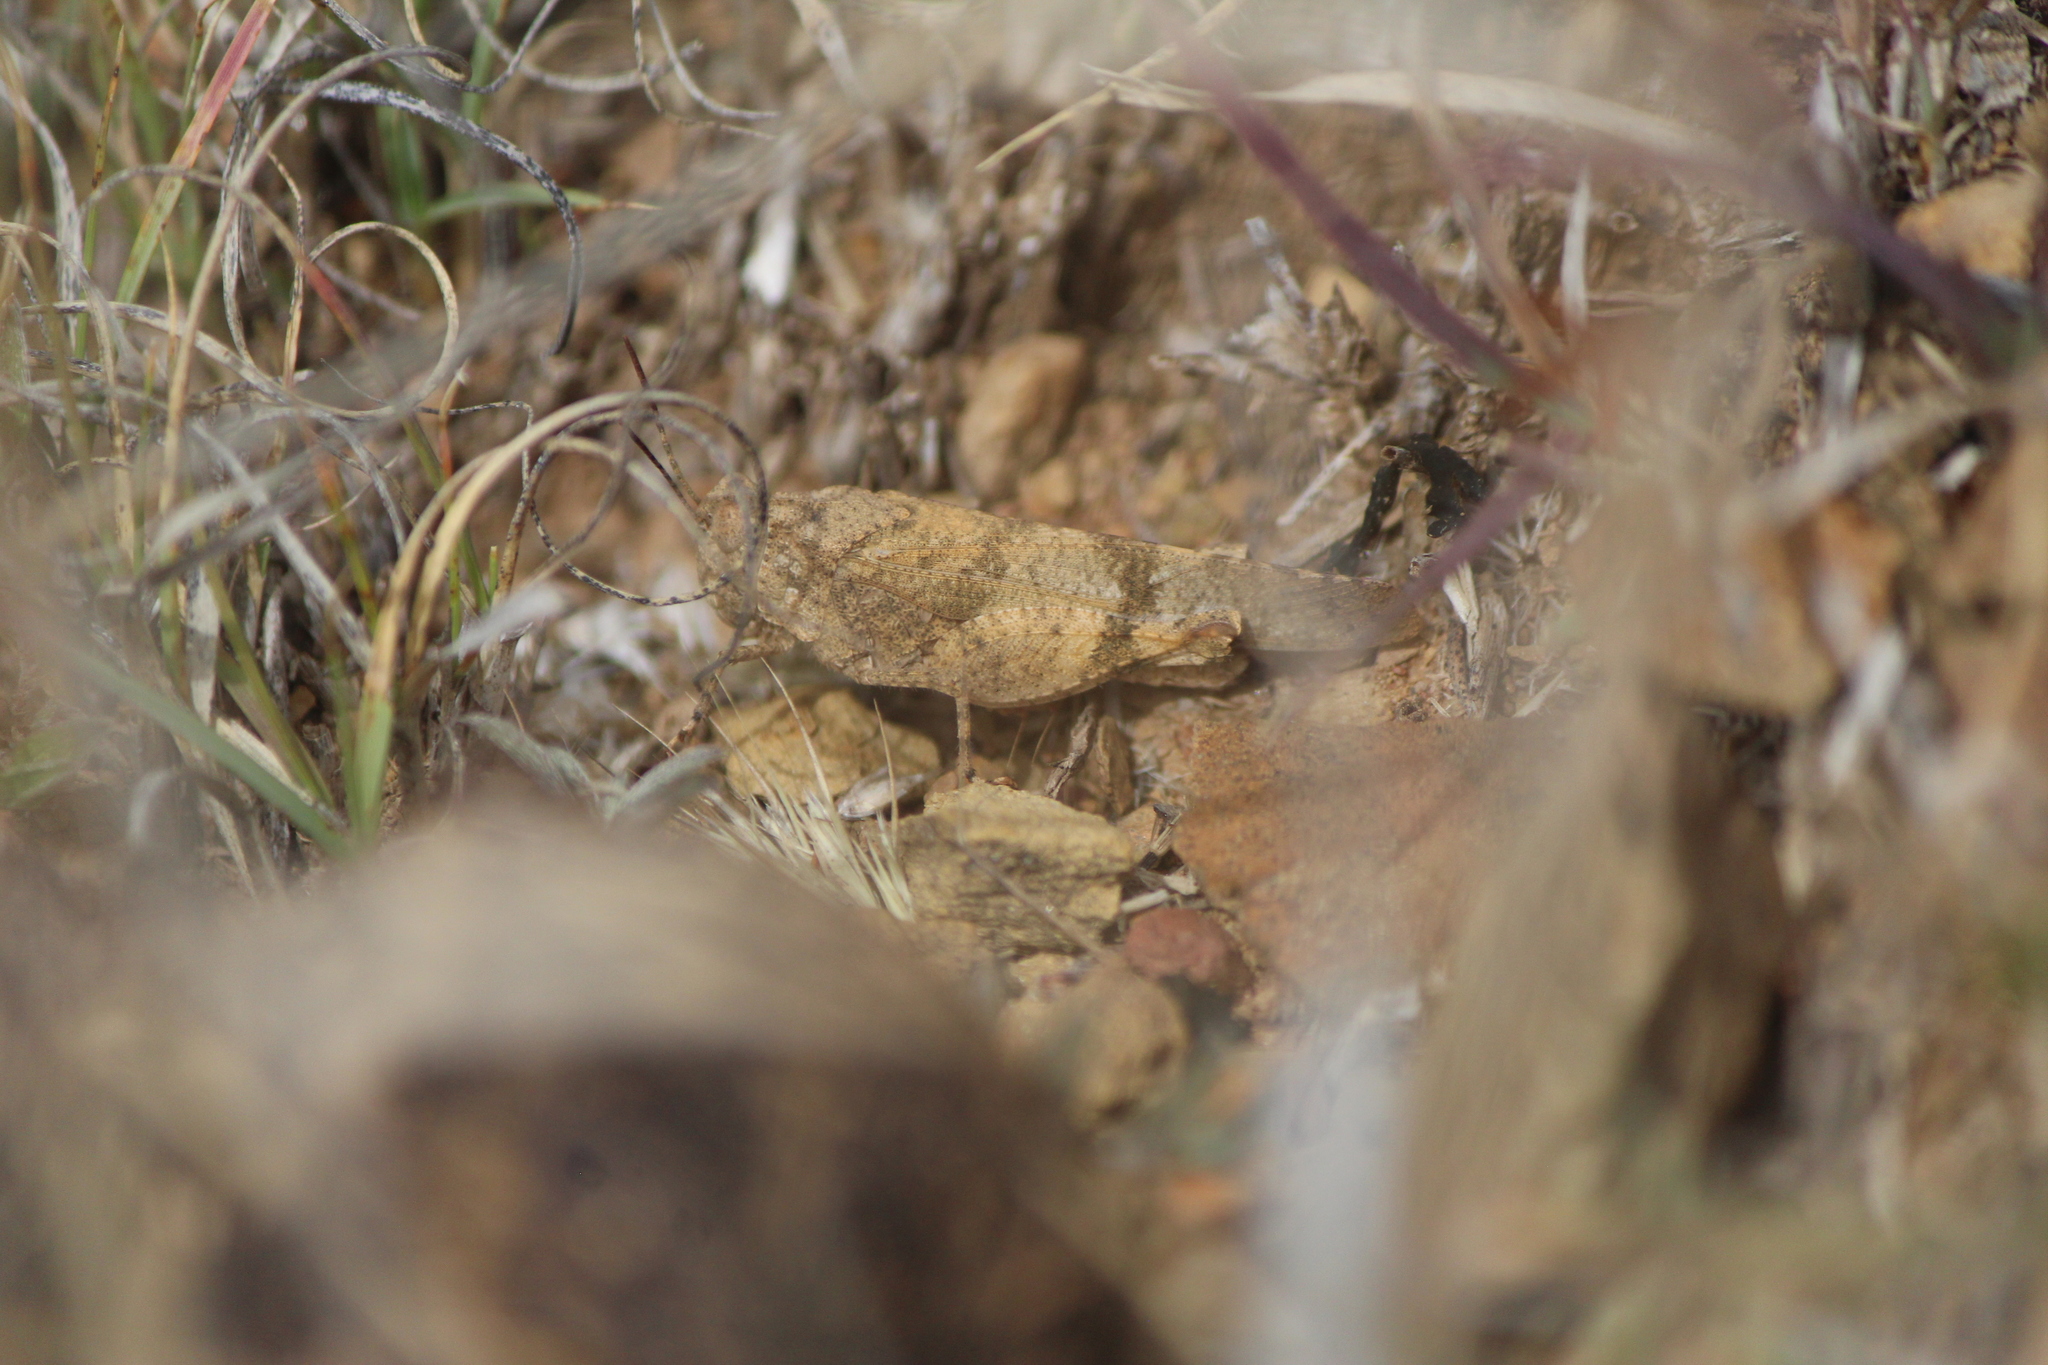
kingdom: Animalia
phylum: Arthropoda
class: Insecta
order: Orthoptera
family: Acrididae
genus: Lactista
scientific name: Lactista azteca
